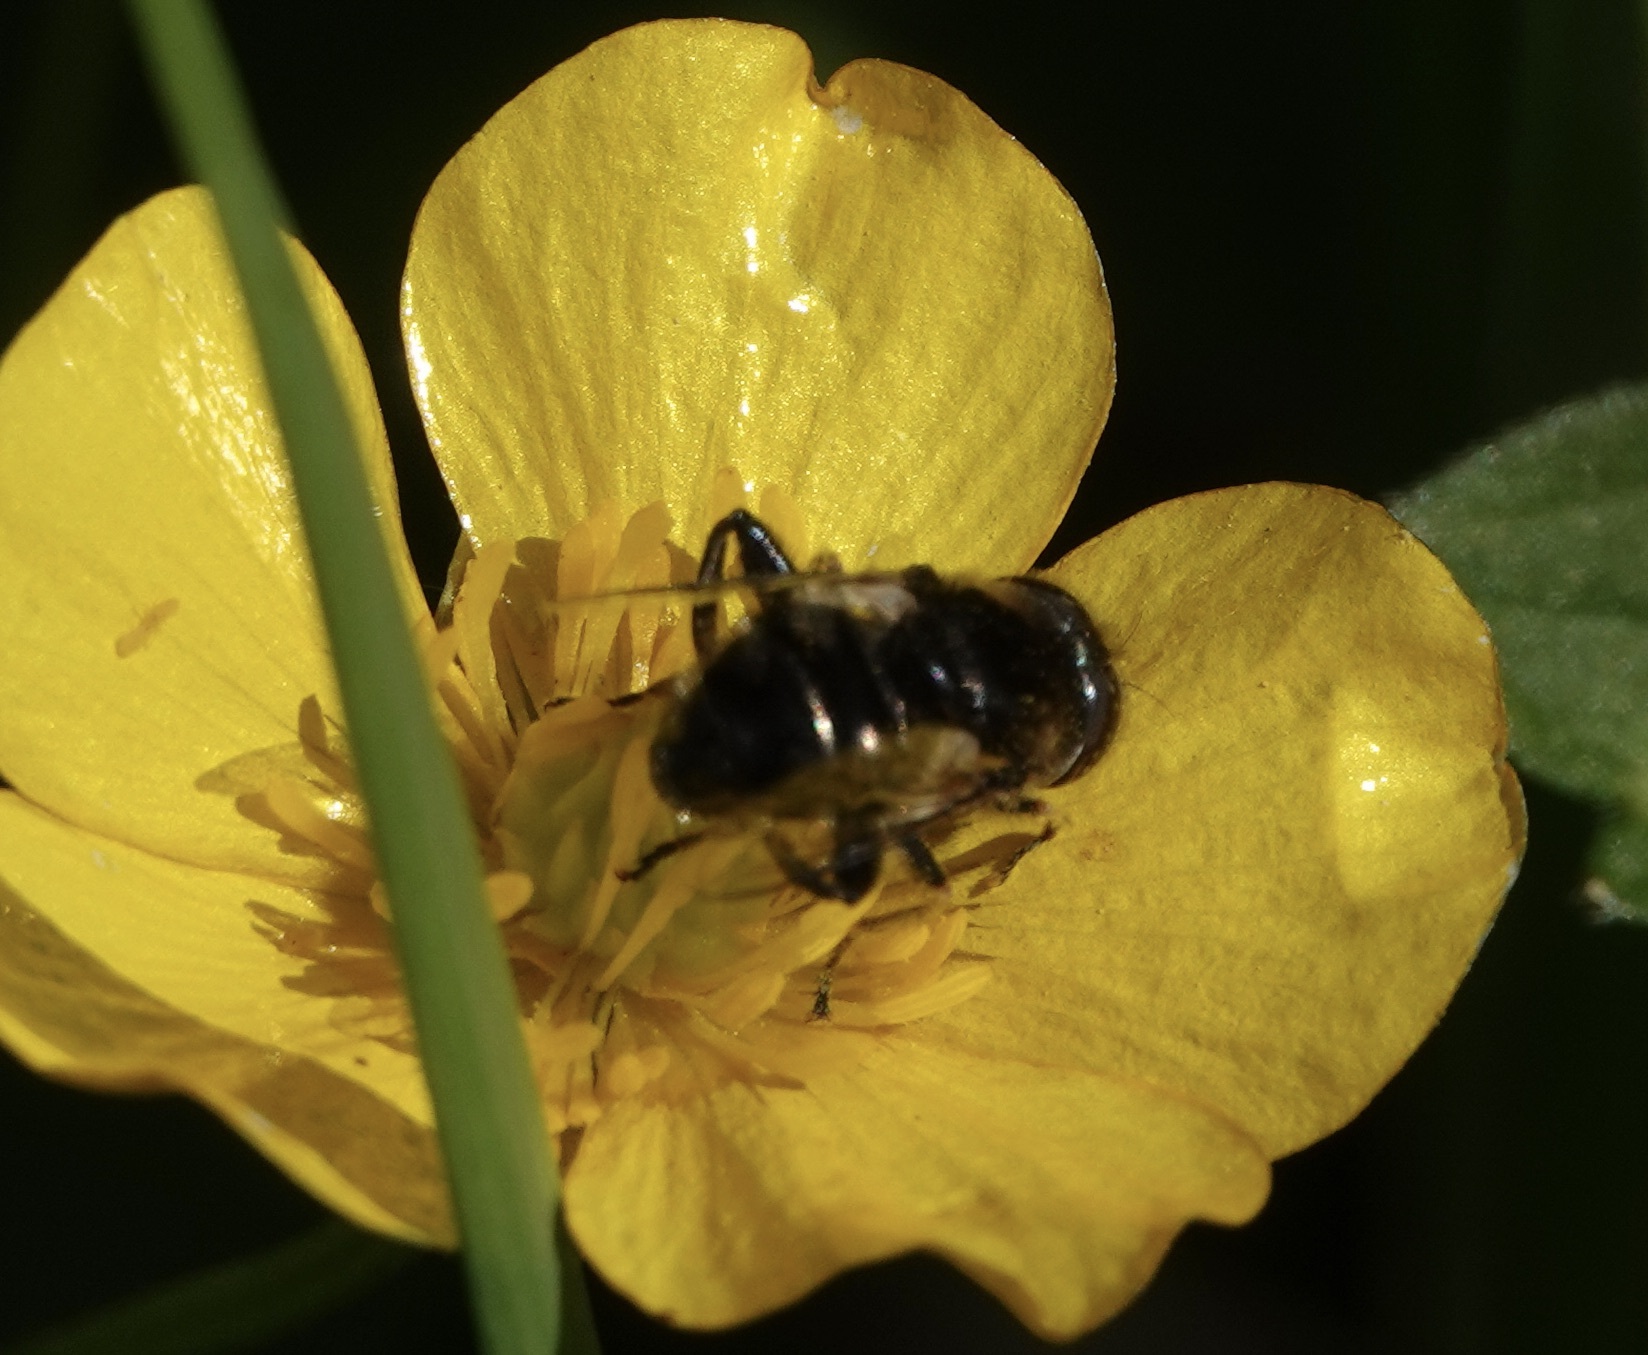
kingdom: Animalia
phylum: Arthropoda
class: Insecta
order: Diptera
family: Syrphidae
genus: Eristalinus
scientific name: Eristalinus sepulchralis
